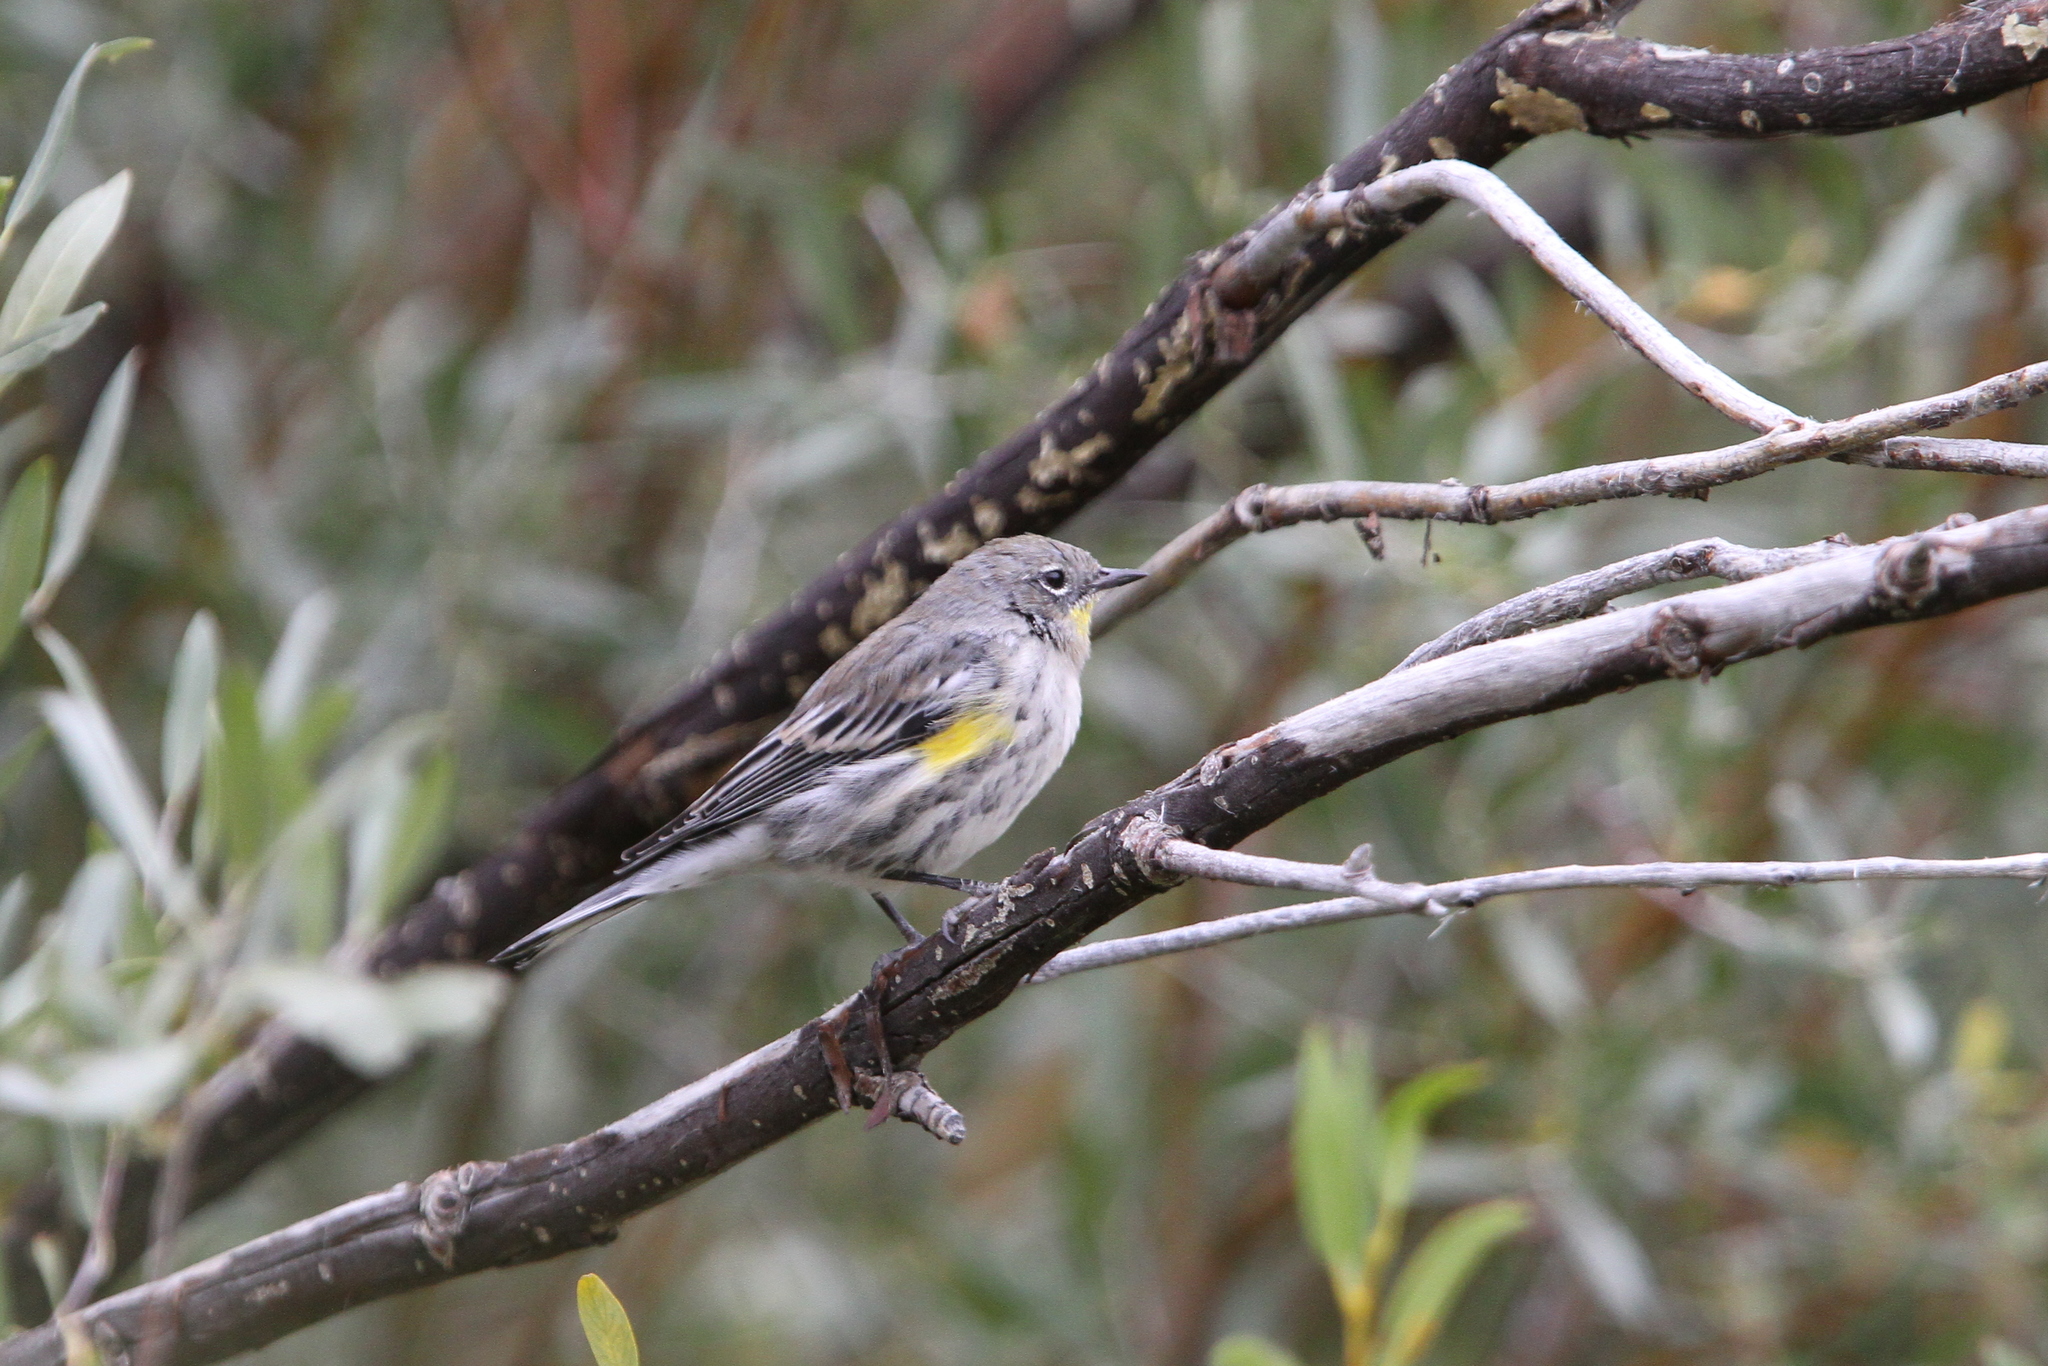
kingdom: Animalia
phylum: Chordata
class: Aves
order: Passeriformes
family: Parulidae
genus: Setophaga
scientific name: Setophaga coronata
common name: Myrtle warbler
